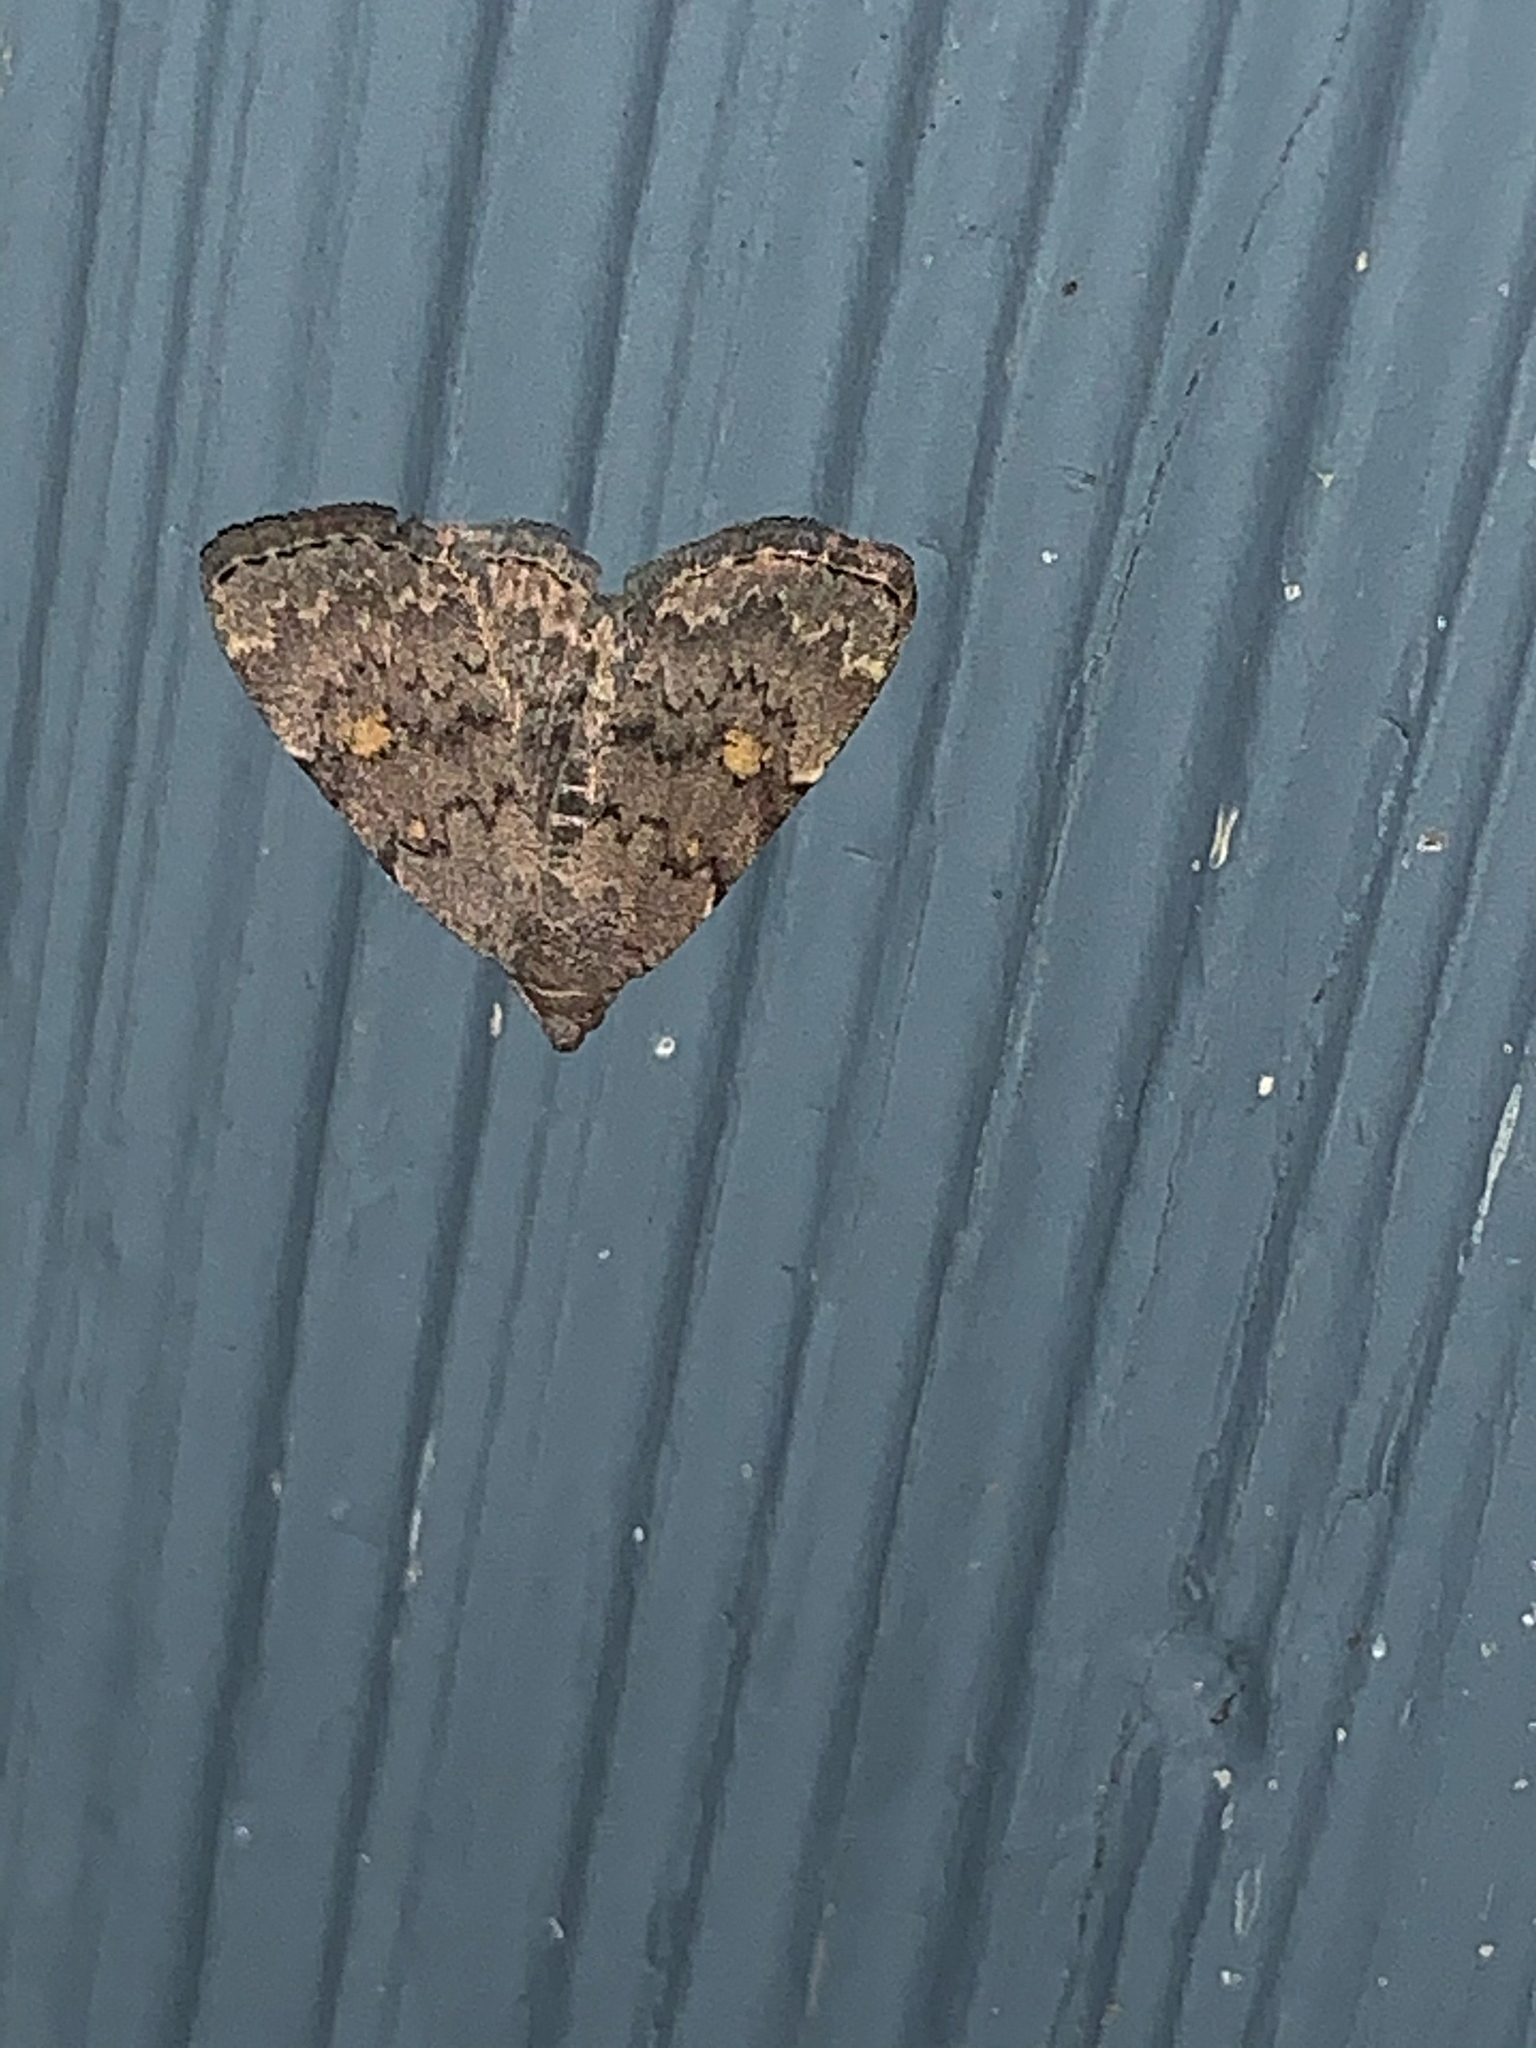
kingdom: Animalia
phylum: Arthropoda
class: Insecta
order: Lepidoptera
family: Erebidae
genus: Idia
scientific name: Idia aemula
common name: Common idia moth
